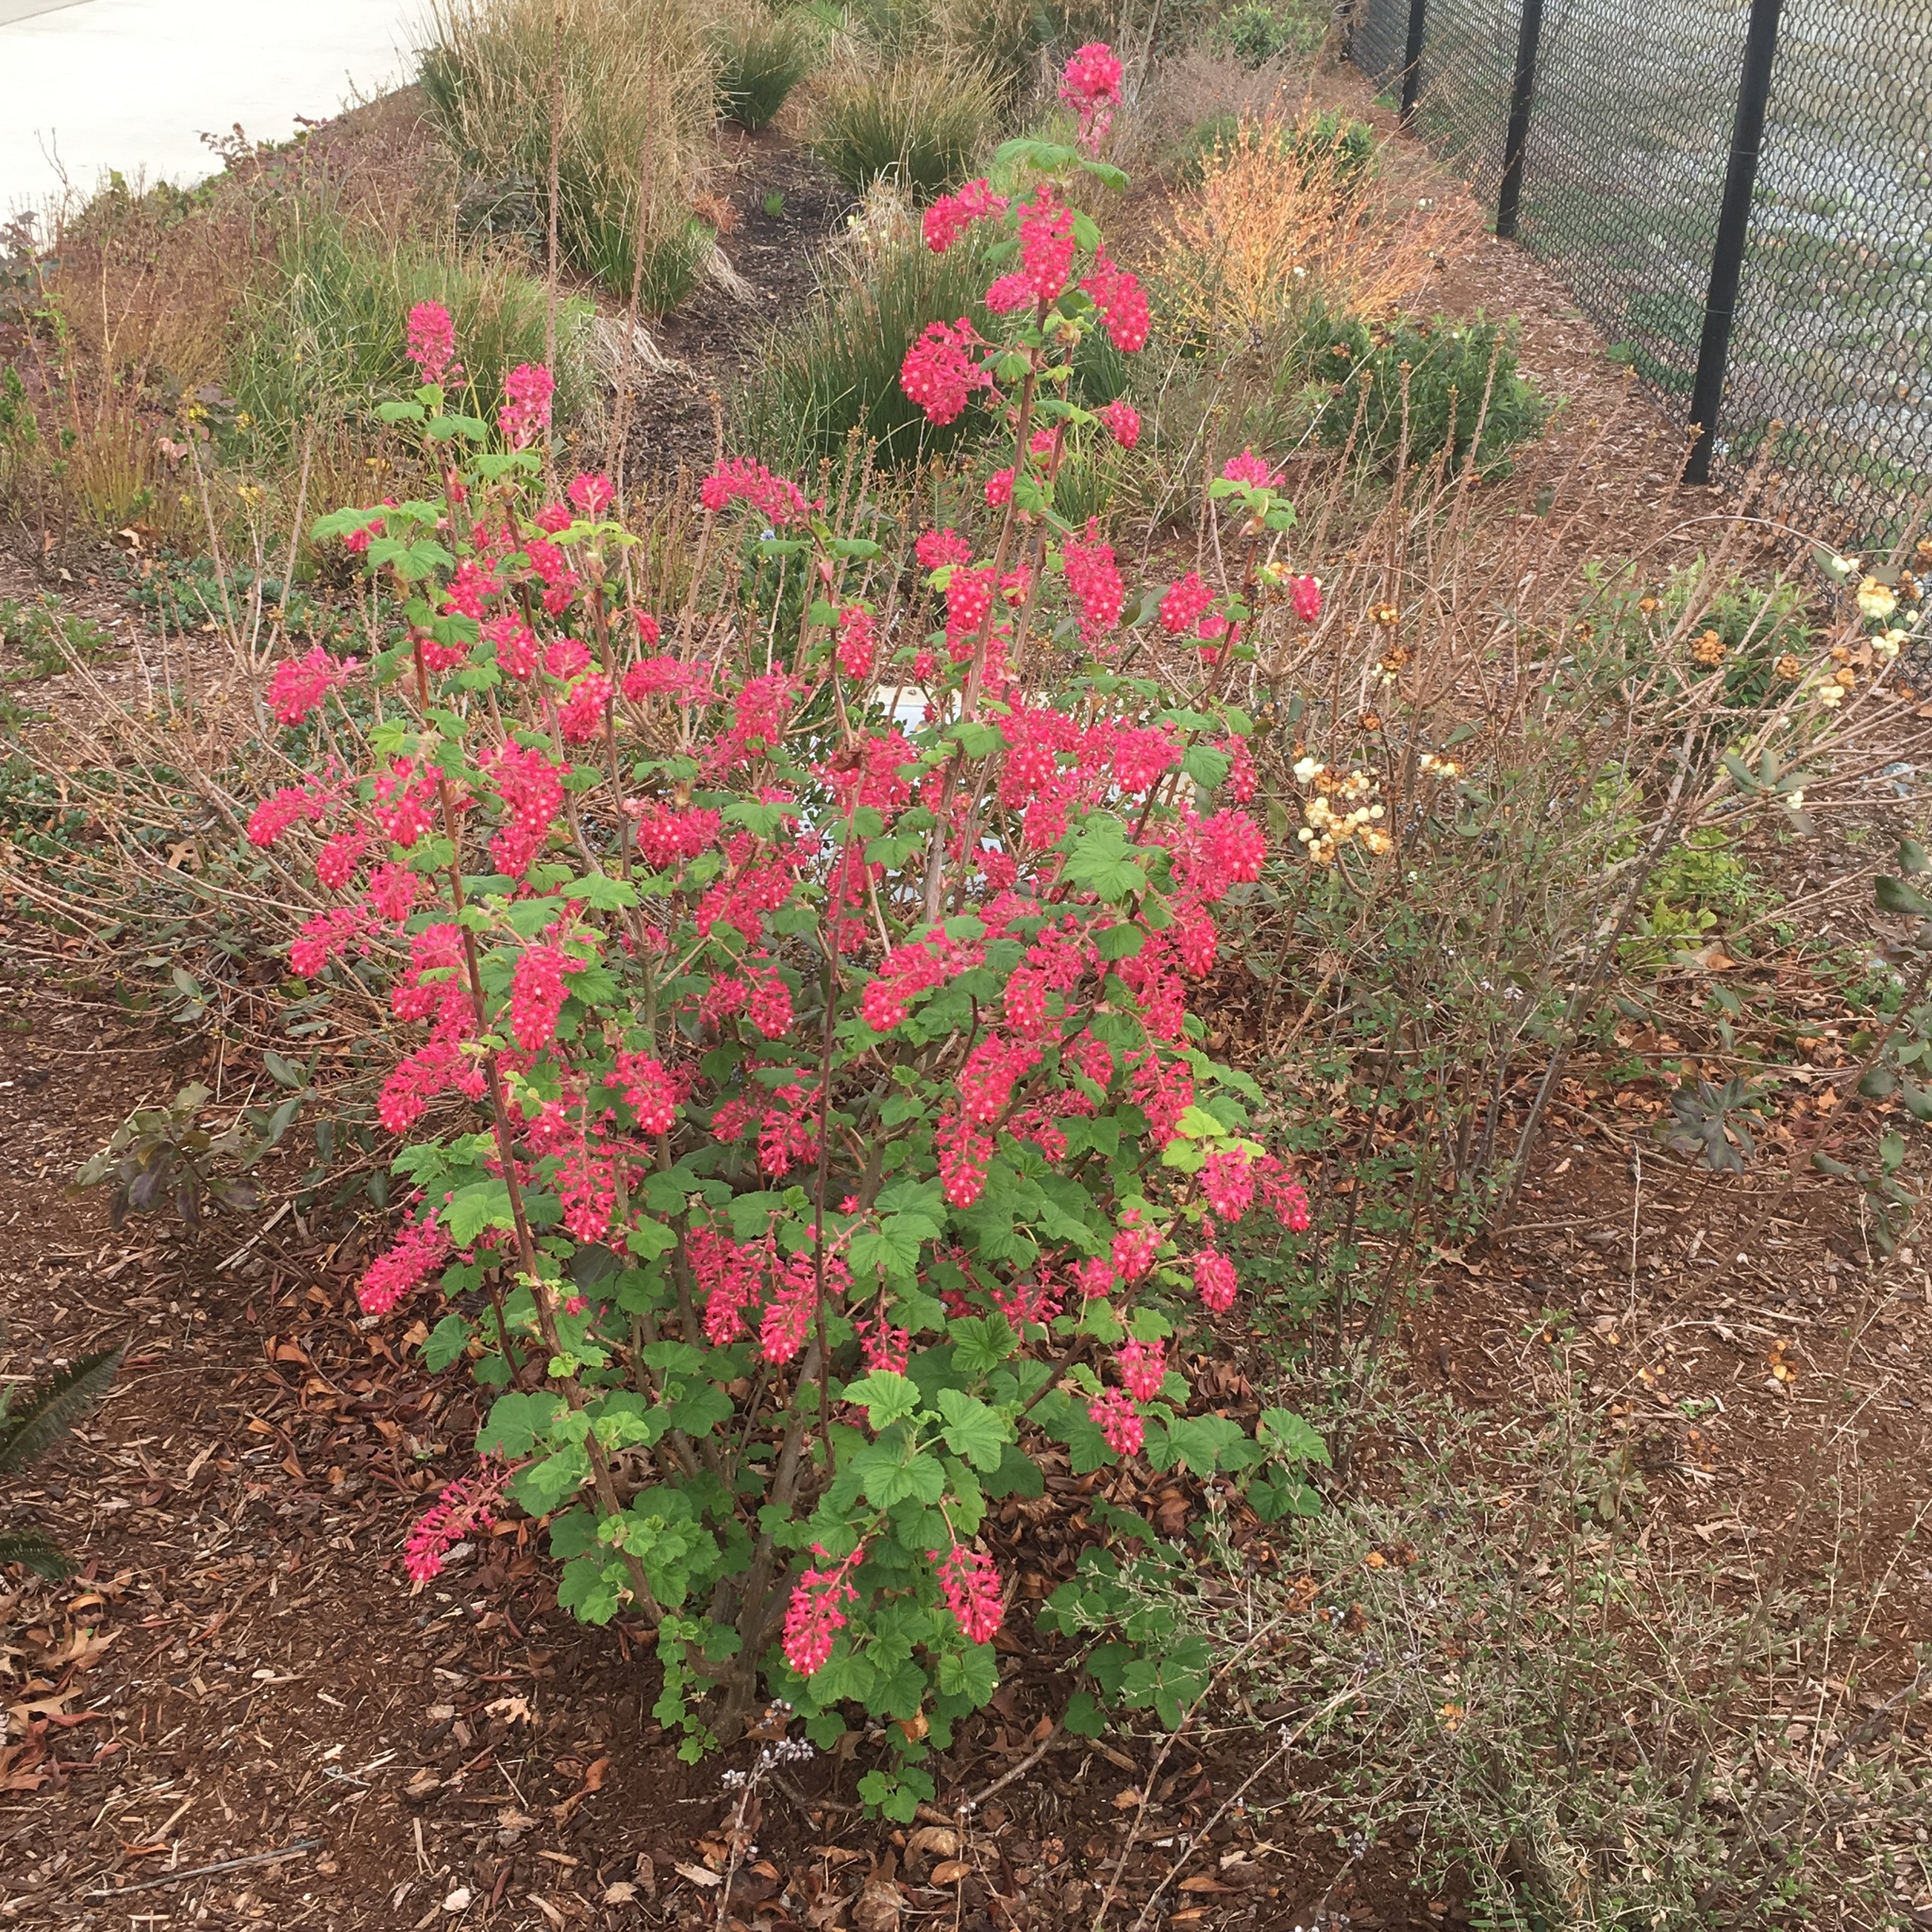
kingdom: Plantae
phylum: Tracheophyta
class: Magnoliopsida
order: Saxifragales
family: Grossulariaceae
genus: Ribes
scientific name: Ribes sanguineum
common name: Flowering currant
